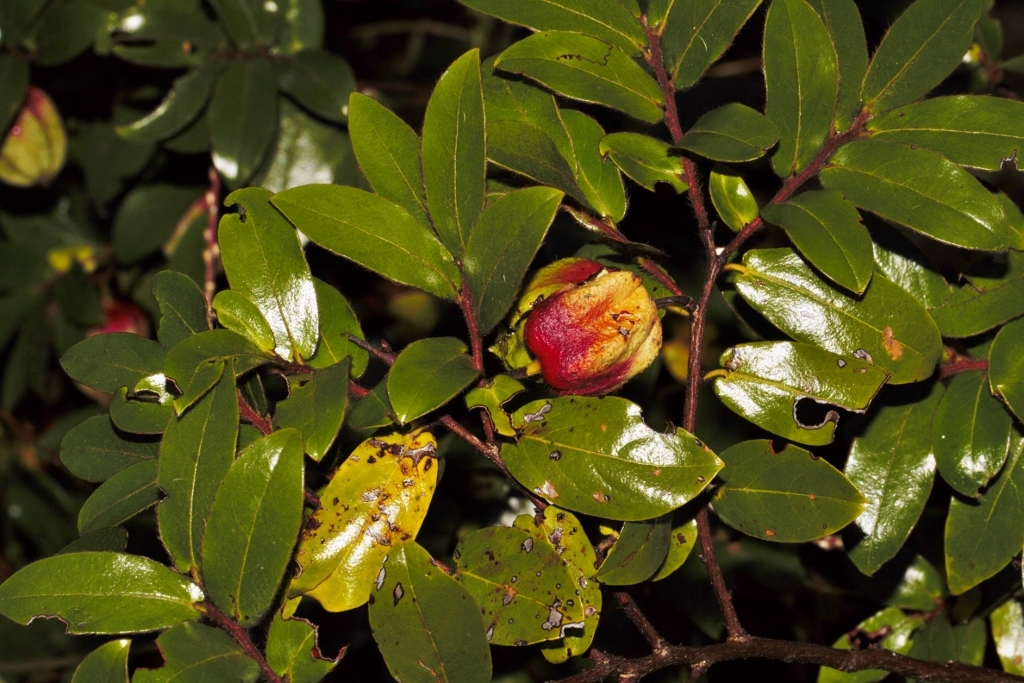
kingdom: Plantae
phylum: Tracheophyta
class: Magnoliopsida
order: Ericales
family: Ebenaceae
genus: Diospyros
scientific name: Diospyros whyteana
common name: Bladder-nut
